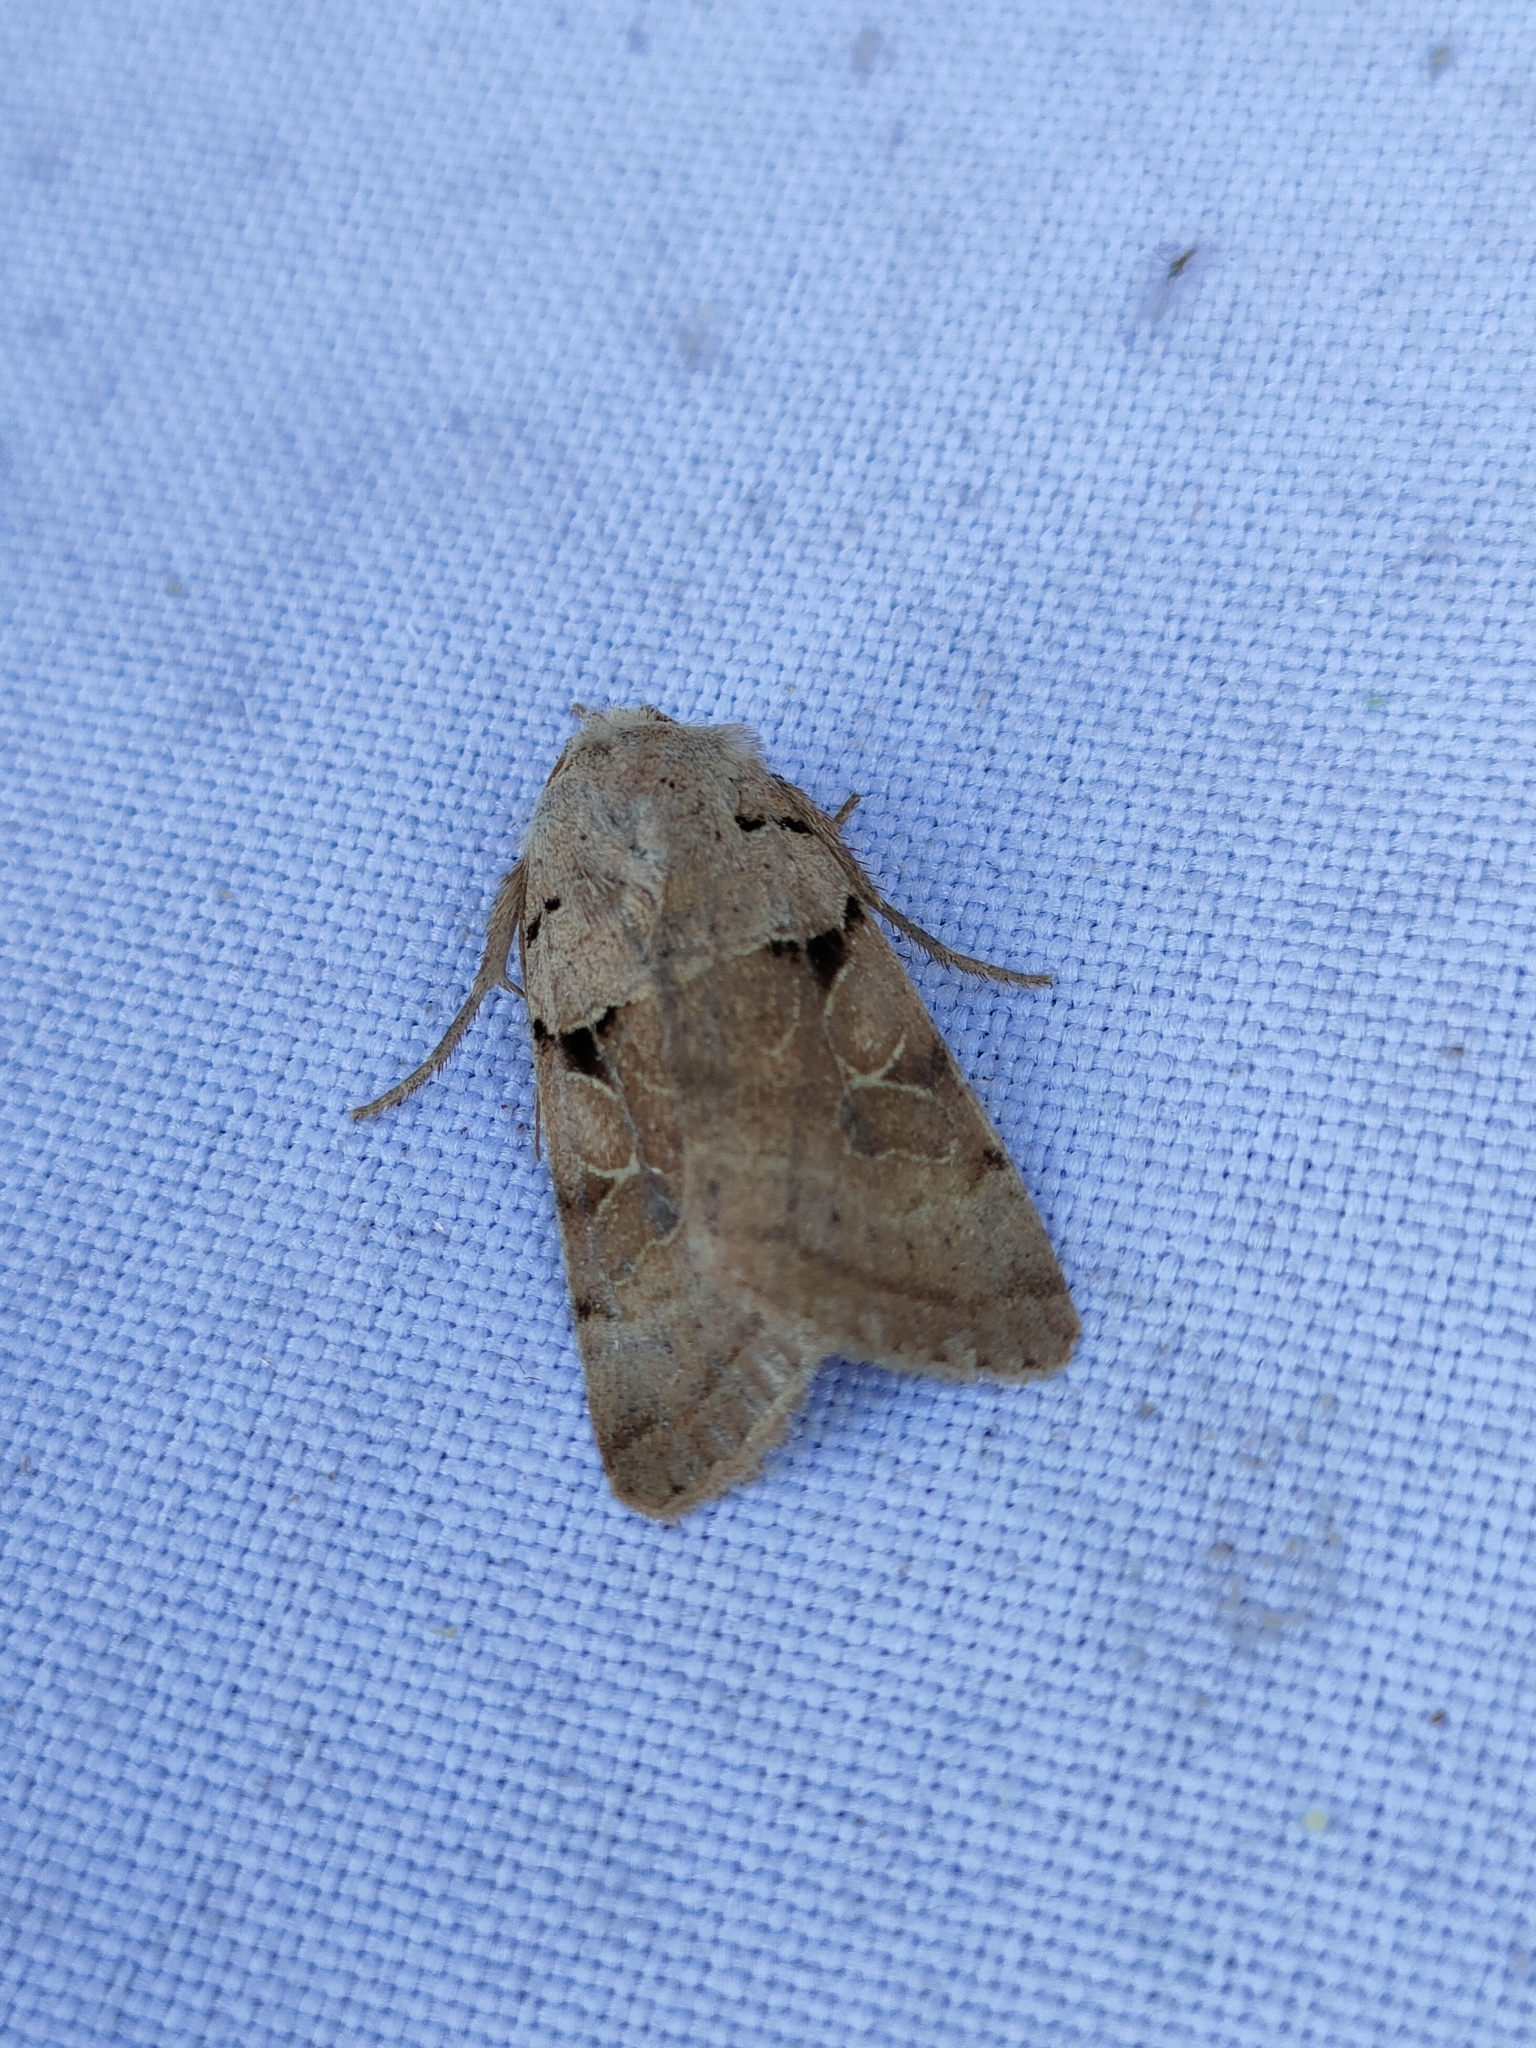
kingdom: Animalia
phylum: Arthropoda
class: Insecta
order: Lepidoptera
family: Noctuidae
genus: Eugnorisma
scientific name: Eugnorisma arenoflavida
